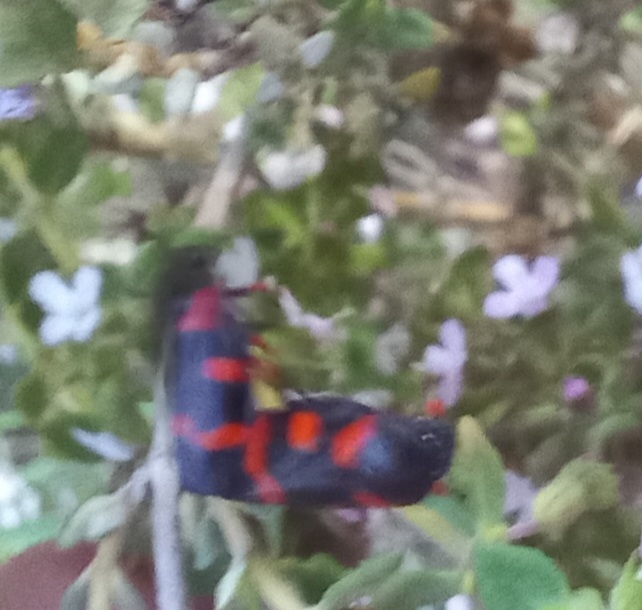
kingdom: Animalia
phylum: Arthropoda
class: Insecta
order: Hemiptera
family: Cercopidae
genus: Cercopis
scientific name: Cercopis intermedia
